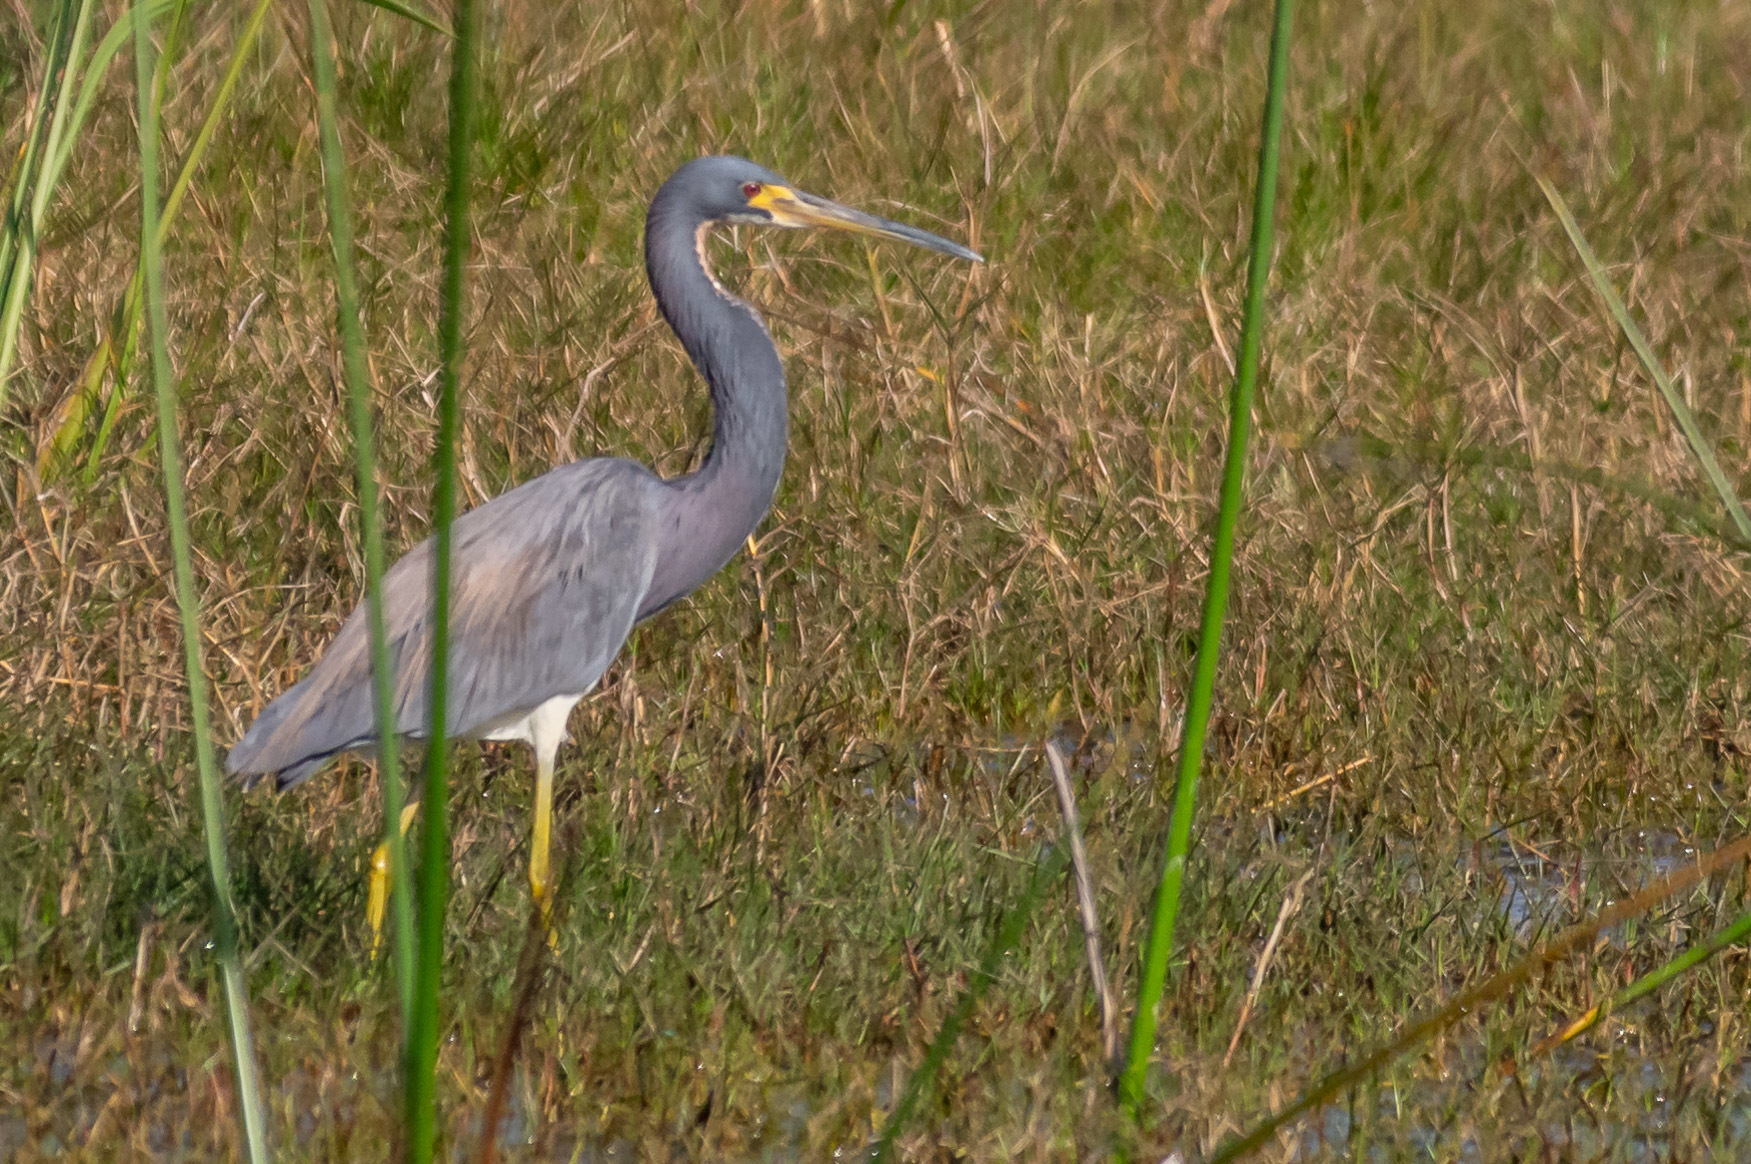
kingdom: Animalia
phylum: Chordata
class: Aves
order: Pelecaniformes
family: Ardeidae
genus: Egretta
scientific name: Egretta tricolor
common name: Tricolored heron
